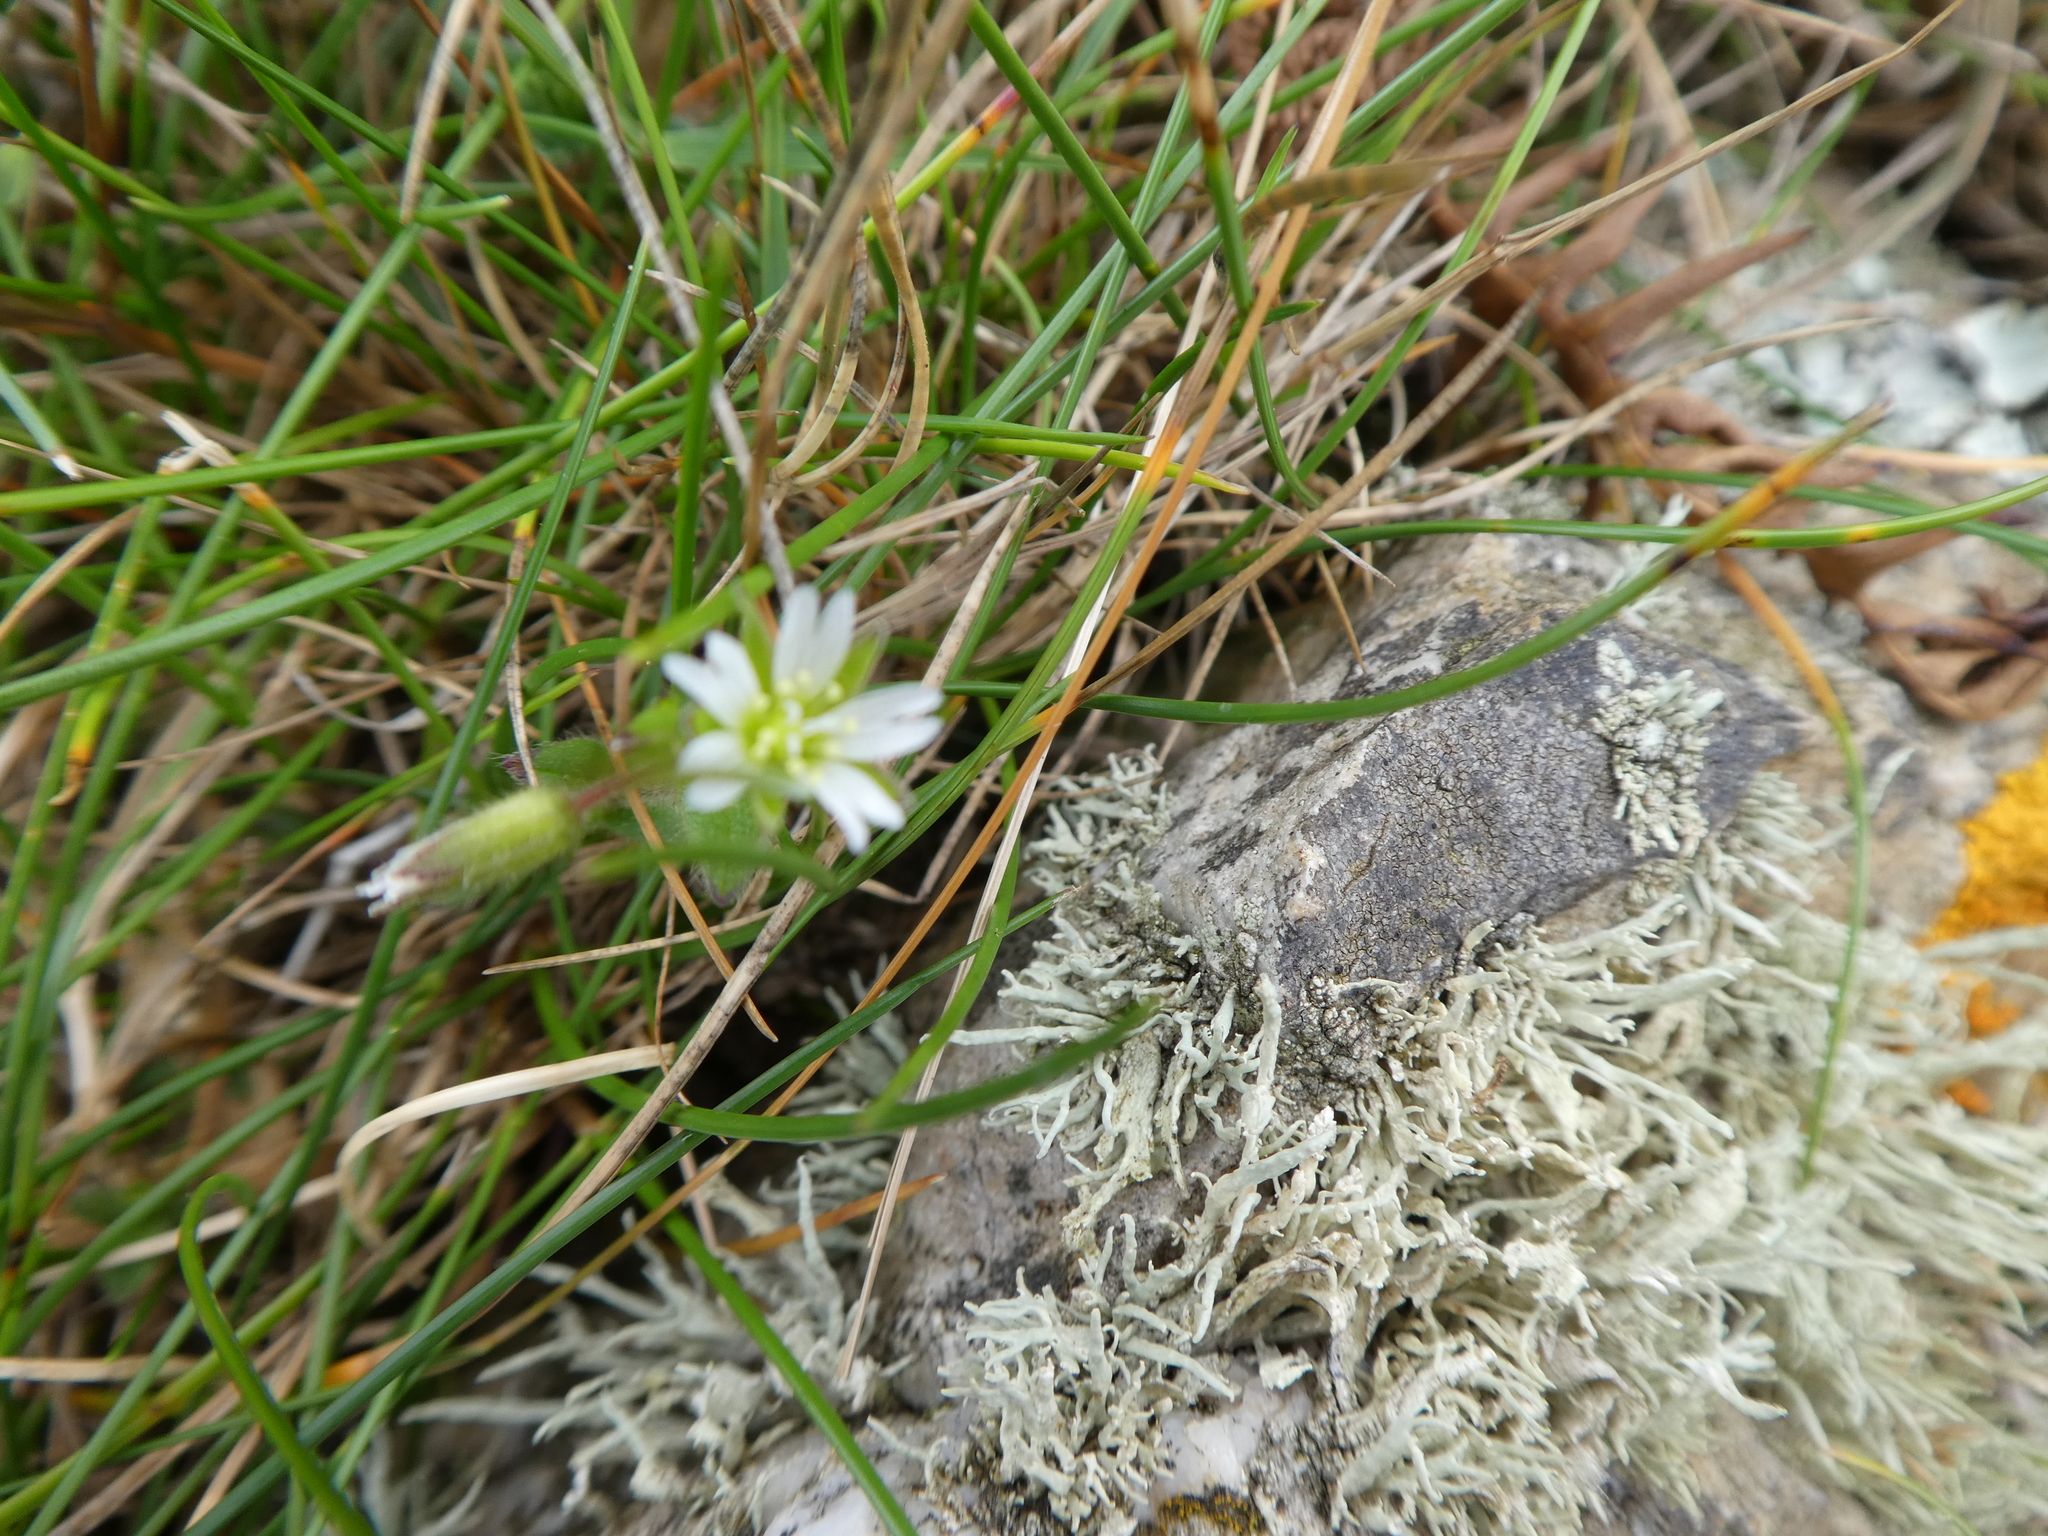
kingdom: Plantae
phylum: Tracheophyta
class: Magnoliopsida
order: Caryophyllales
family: Caryophyllaceae
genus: Cerastium
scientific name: Cerastium fontanum
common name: Common mouse-ear
